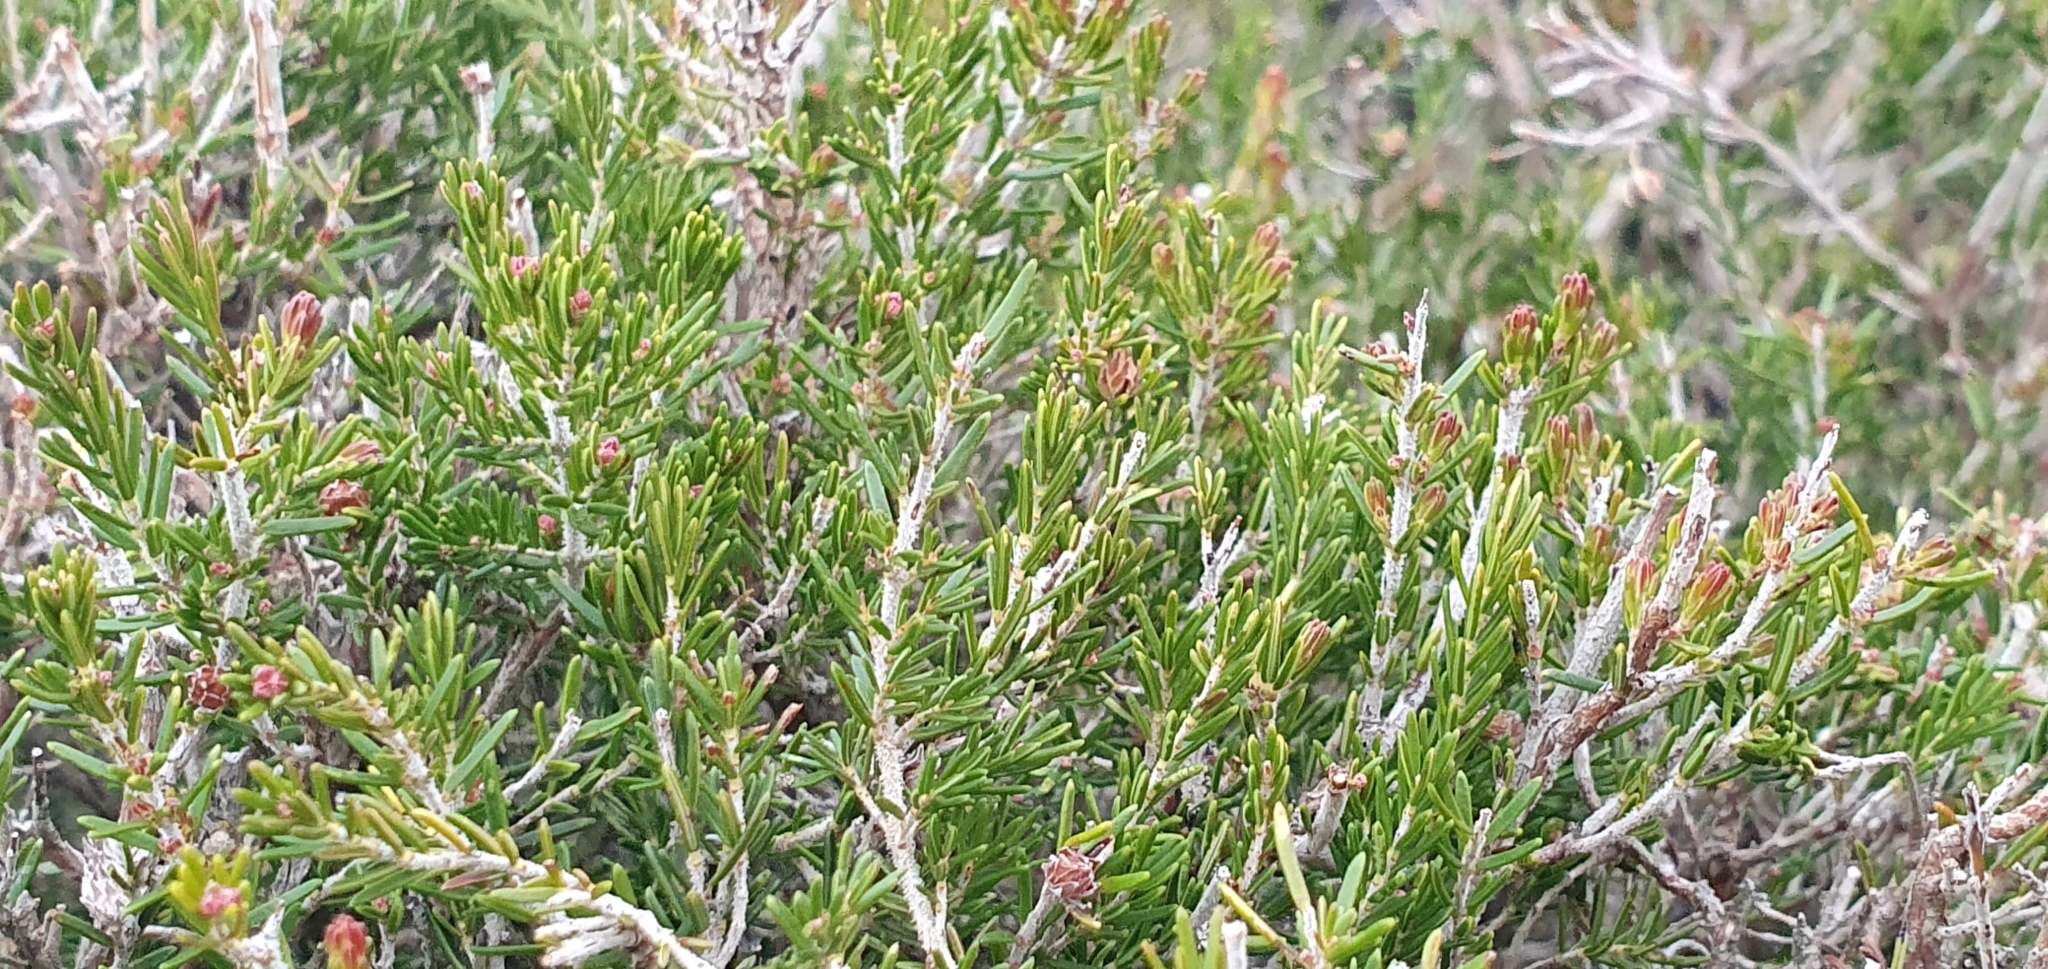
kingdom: Plantae
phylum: Tracheophyta
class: Magnoliopsida
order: Ericales
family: Ericaceae
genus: Erica
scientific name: Erica arborea
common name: Tree heath
